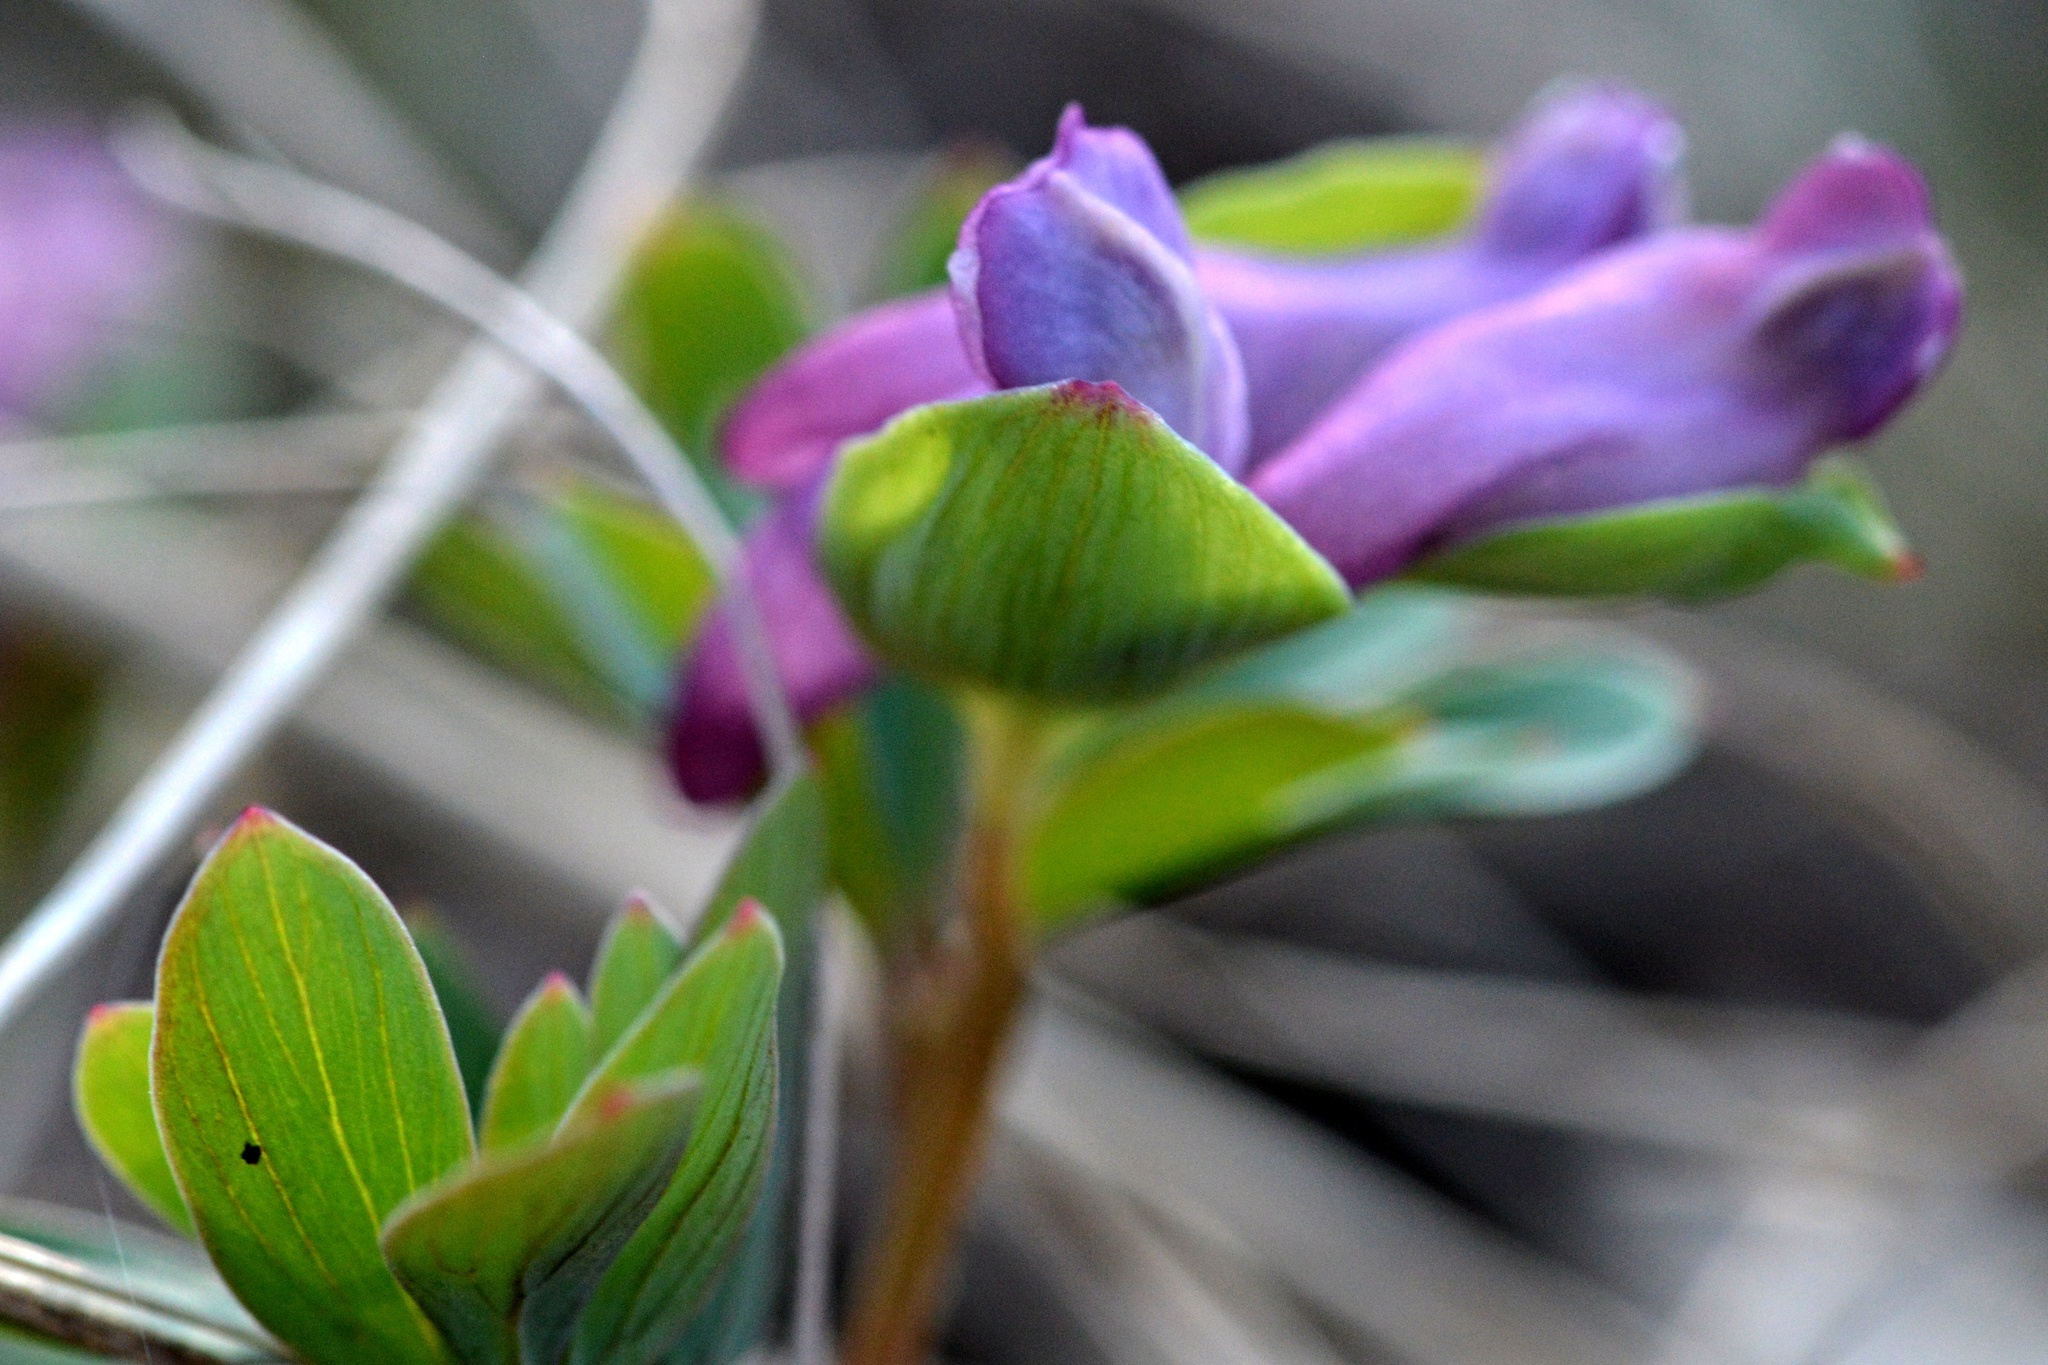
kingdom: Plantae
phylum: Tracheophyta
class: Magnoliopsida
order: Ranunculales
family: Papaveraceae
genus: Corydalis
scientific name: Corydalis cava
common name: Hollowroot
